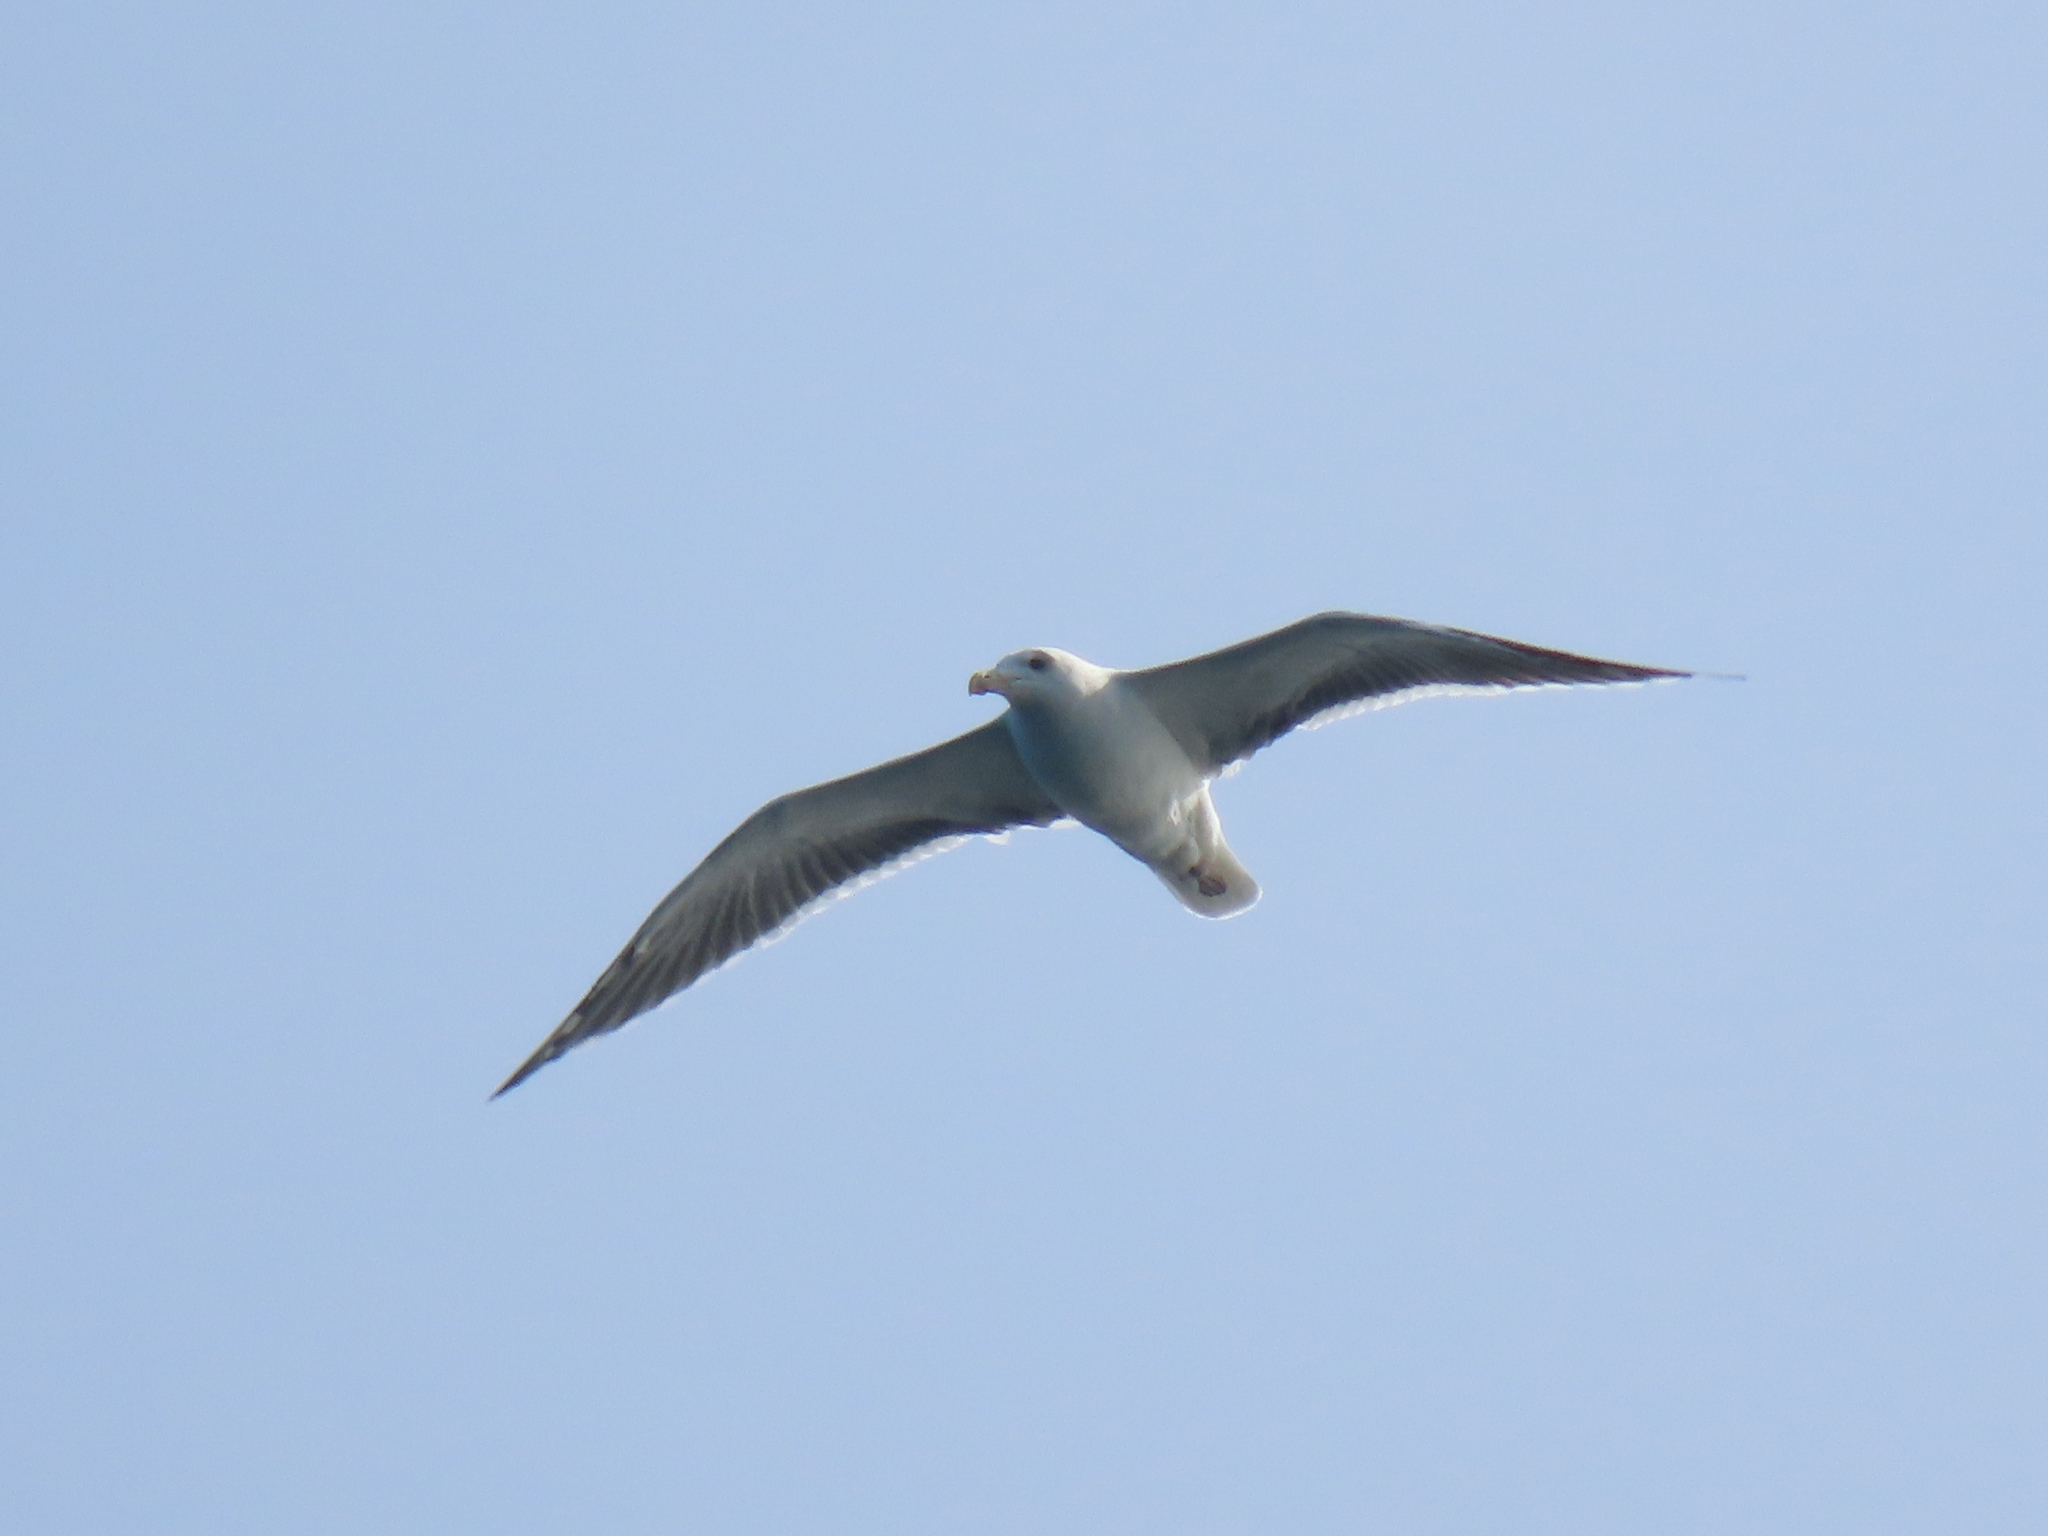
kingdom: Animalia
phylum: Chordata
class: Aves
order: Charadriiformes
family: Laridae
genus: Larus
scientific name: Larus marinus
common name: Great black-backed gull
